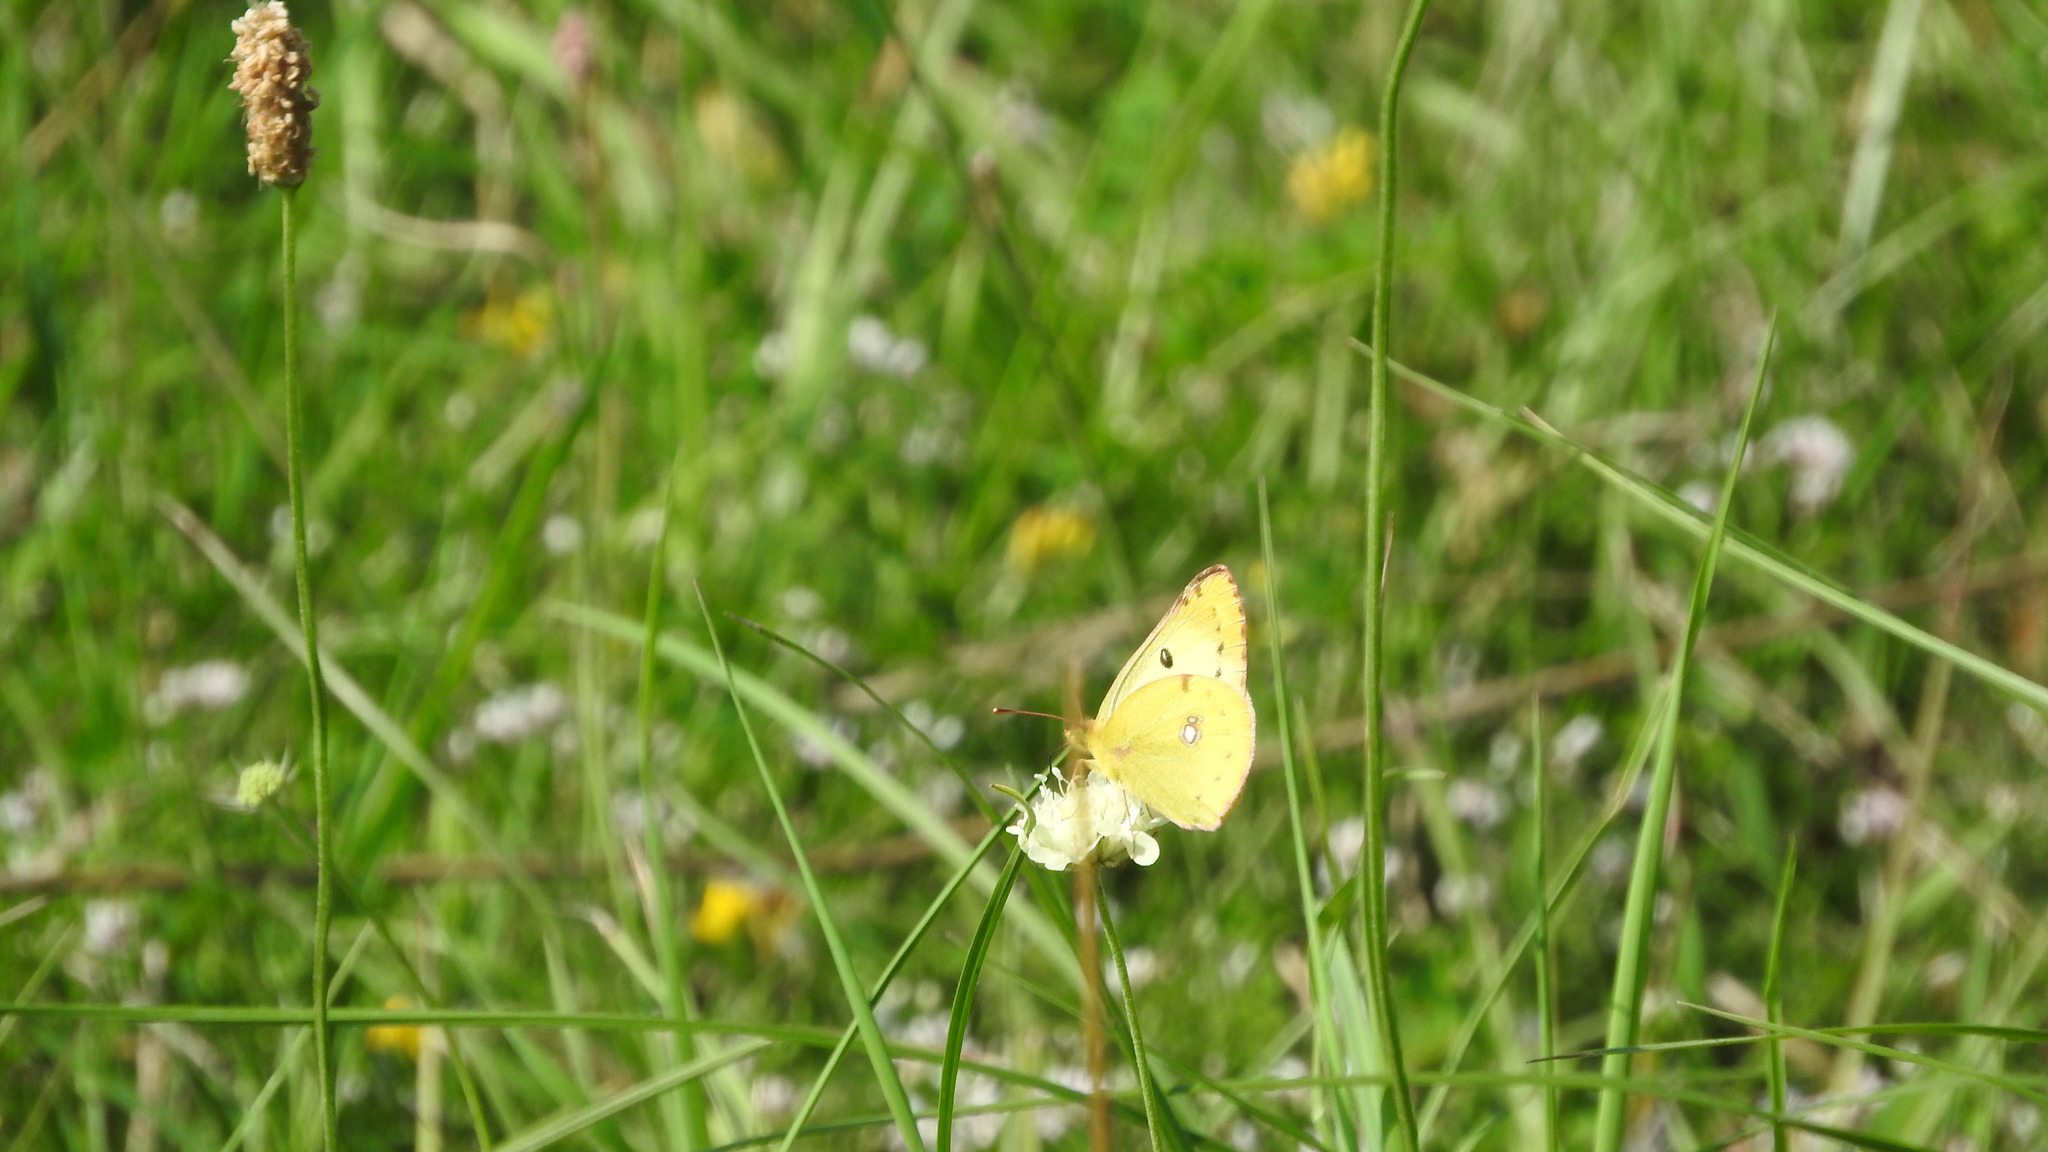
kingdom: Animalia
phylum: Arthropoda
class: Insecta
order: Lepidoptera
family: Pieridae
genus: Colias
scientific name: Colias alfacariensis
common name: Berger's clouded yellow
